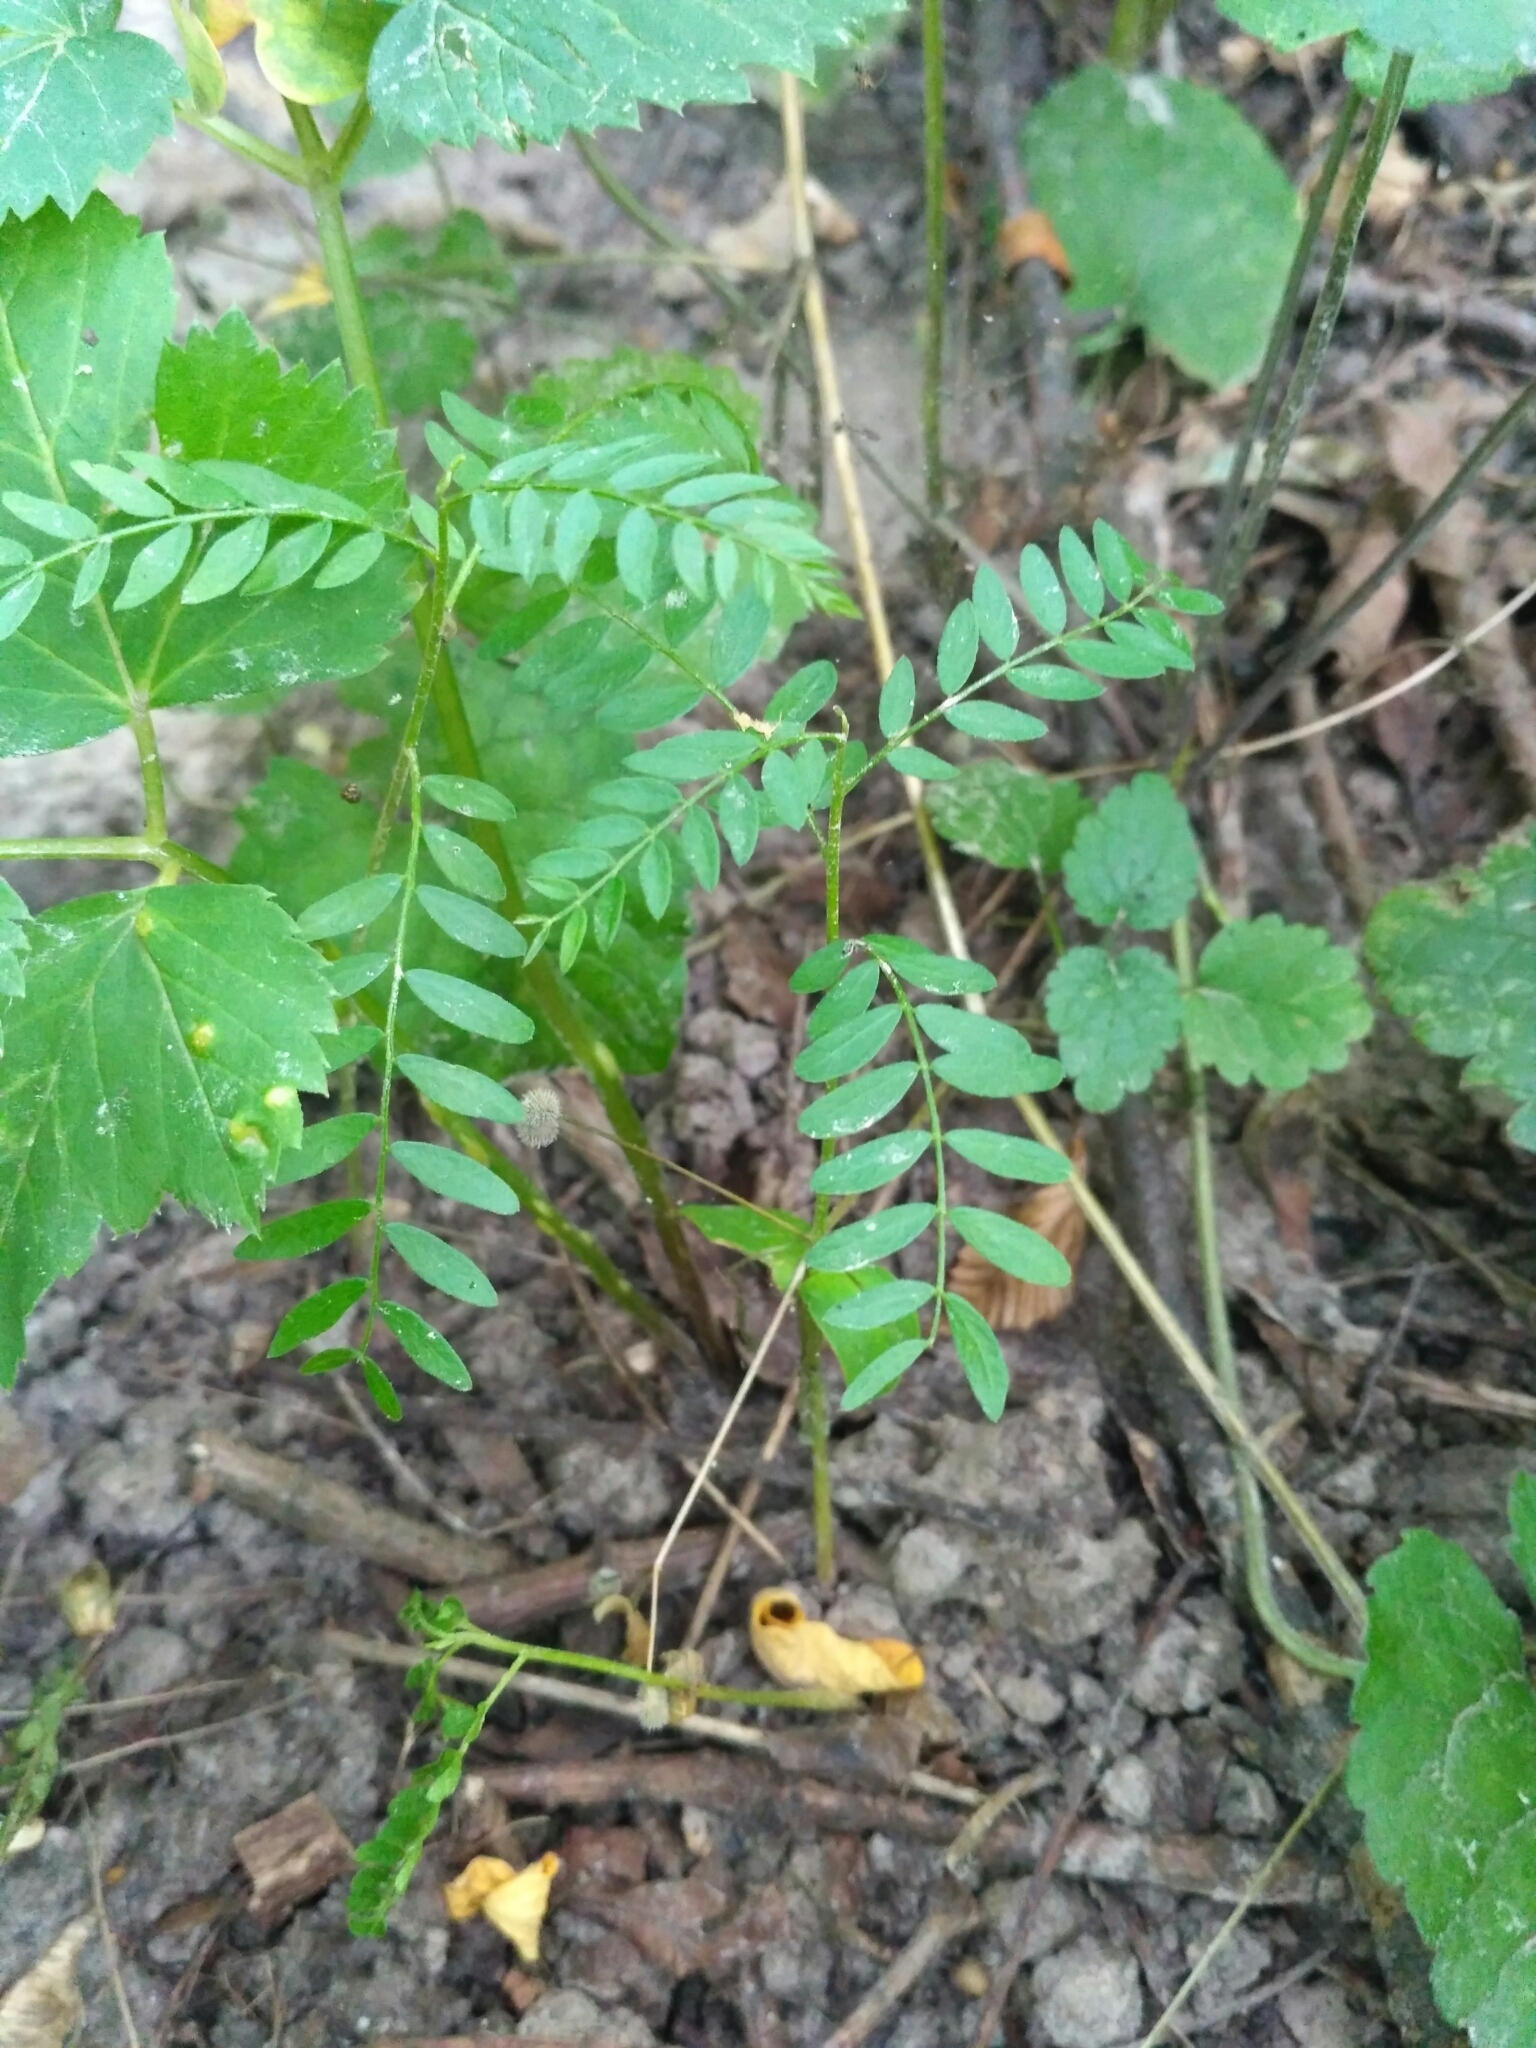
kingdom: Plantae
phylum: Tracheophyta
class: Magnoliopsida
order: Fabales
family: Fabaceae
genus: Gleditsia
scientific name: Gleditsia triacanthos
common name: Common honeylocust
